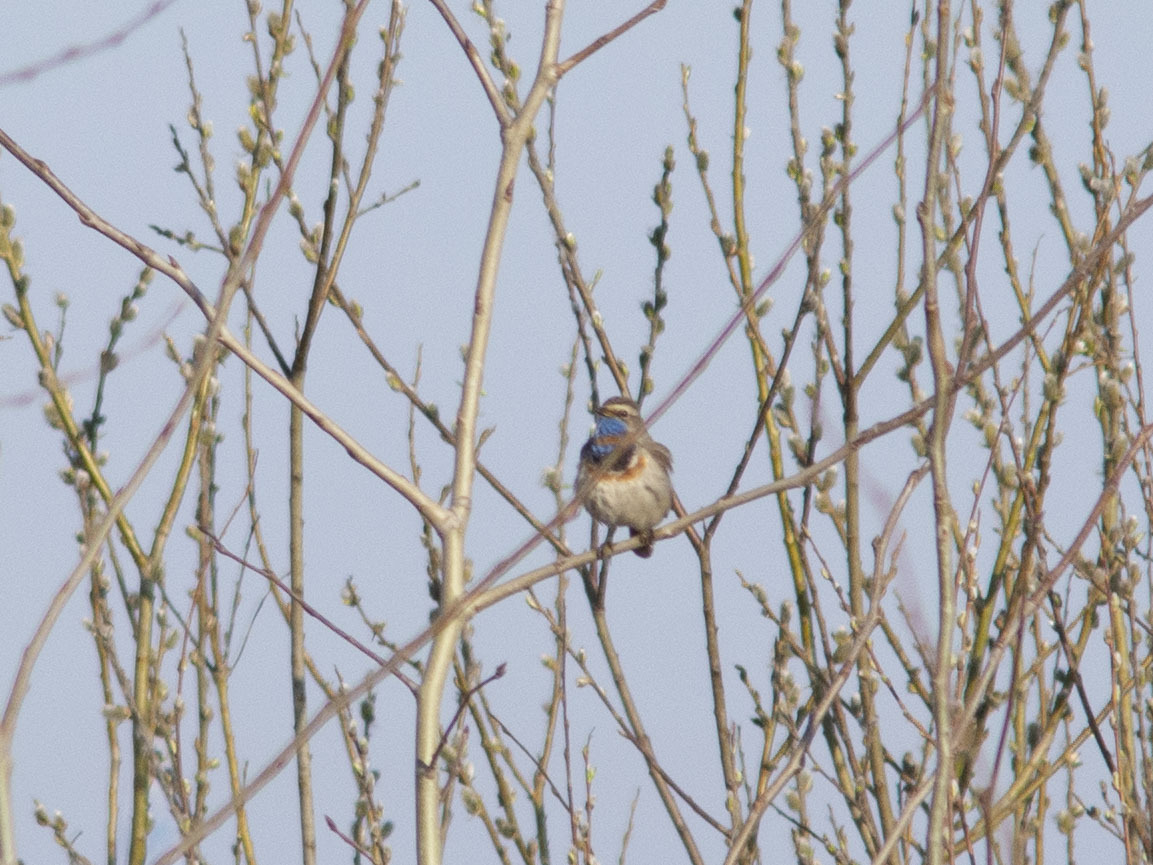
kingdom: Animalia
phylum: Chordata
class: Aves
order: Passeriformes
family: Muscicapidae
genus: Luscinia
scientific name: Luscinia svecica
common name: Bluethroat
